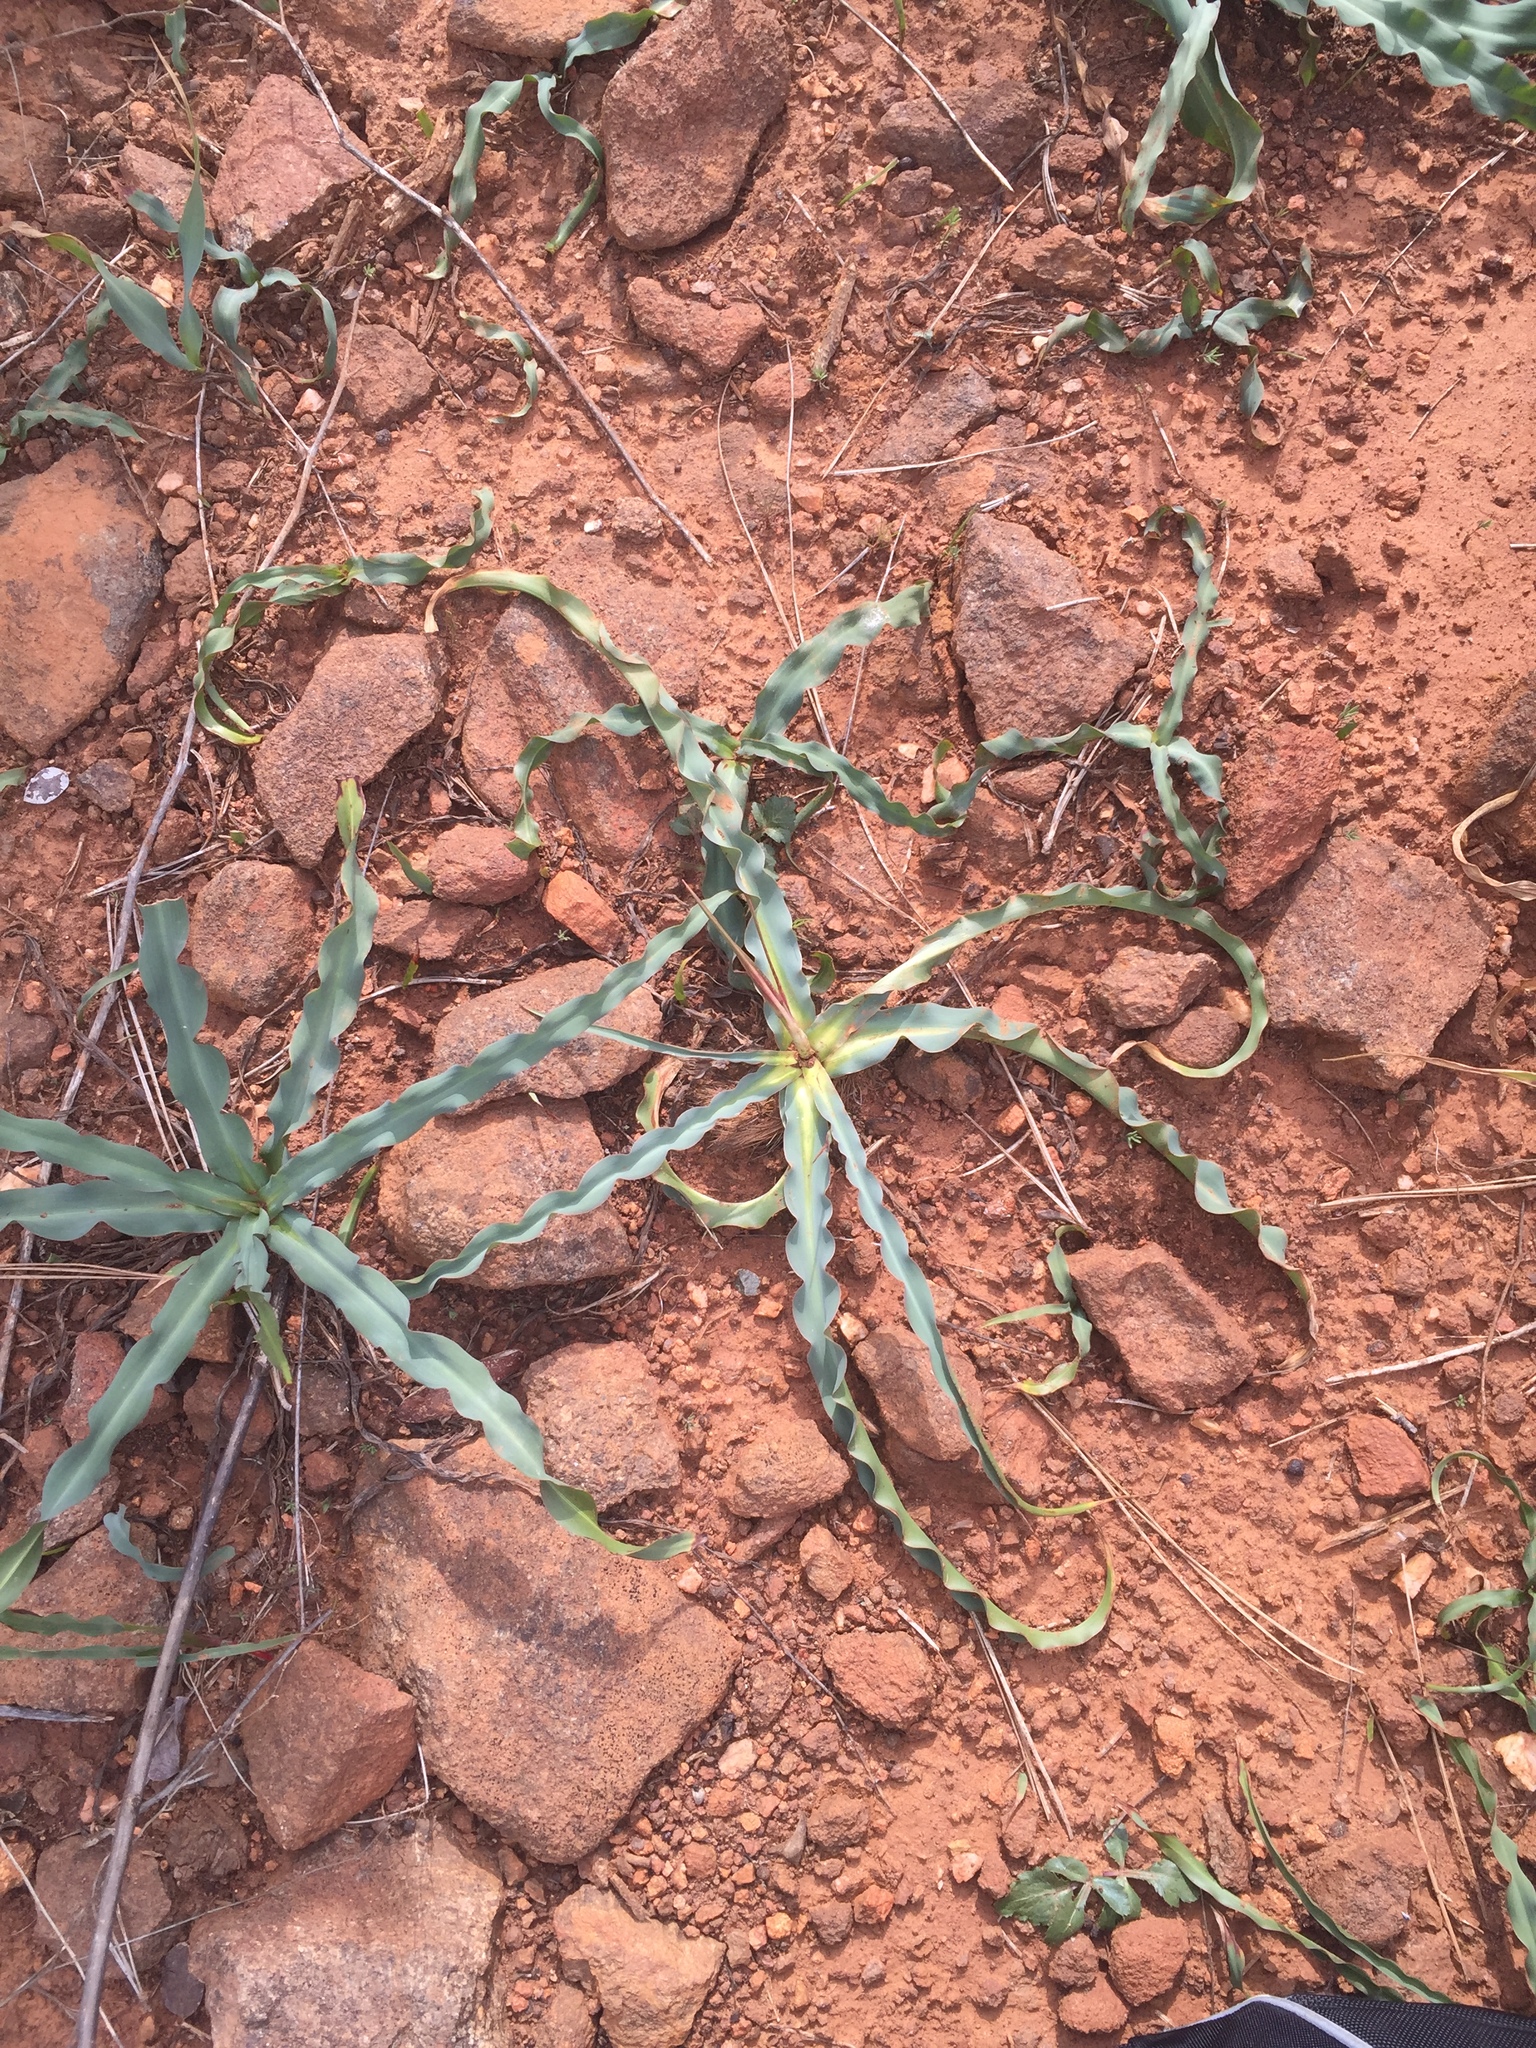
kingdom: Plantae
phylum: Tracheophyta
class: Liliopsida
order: Asparagales
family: Asparagaceae
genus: Chlorogalum
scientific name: Chlorogalum pomeridianum
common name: Amole
